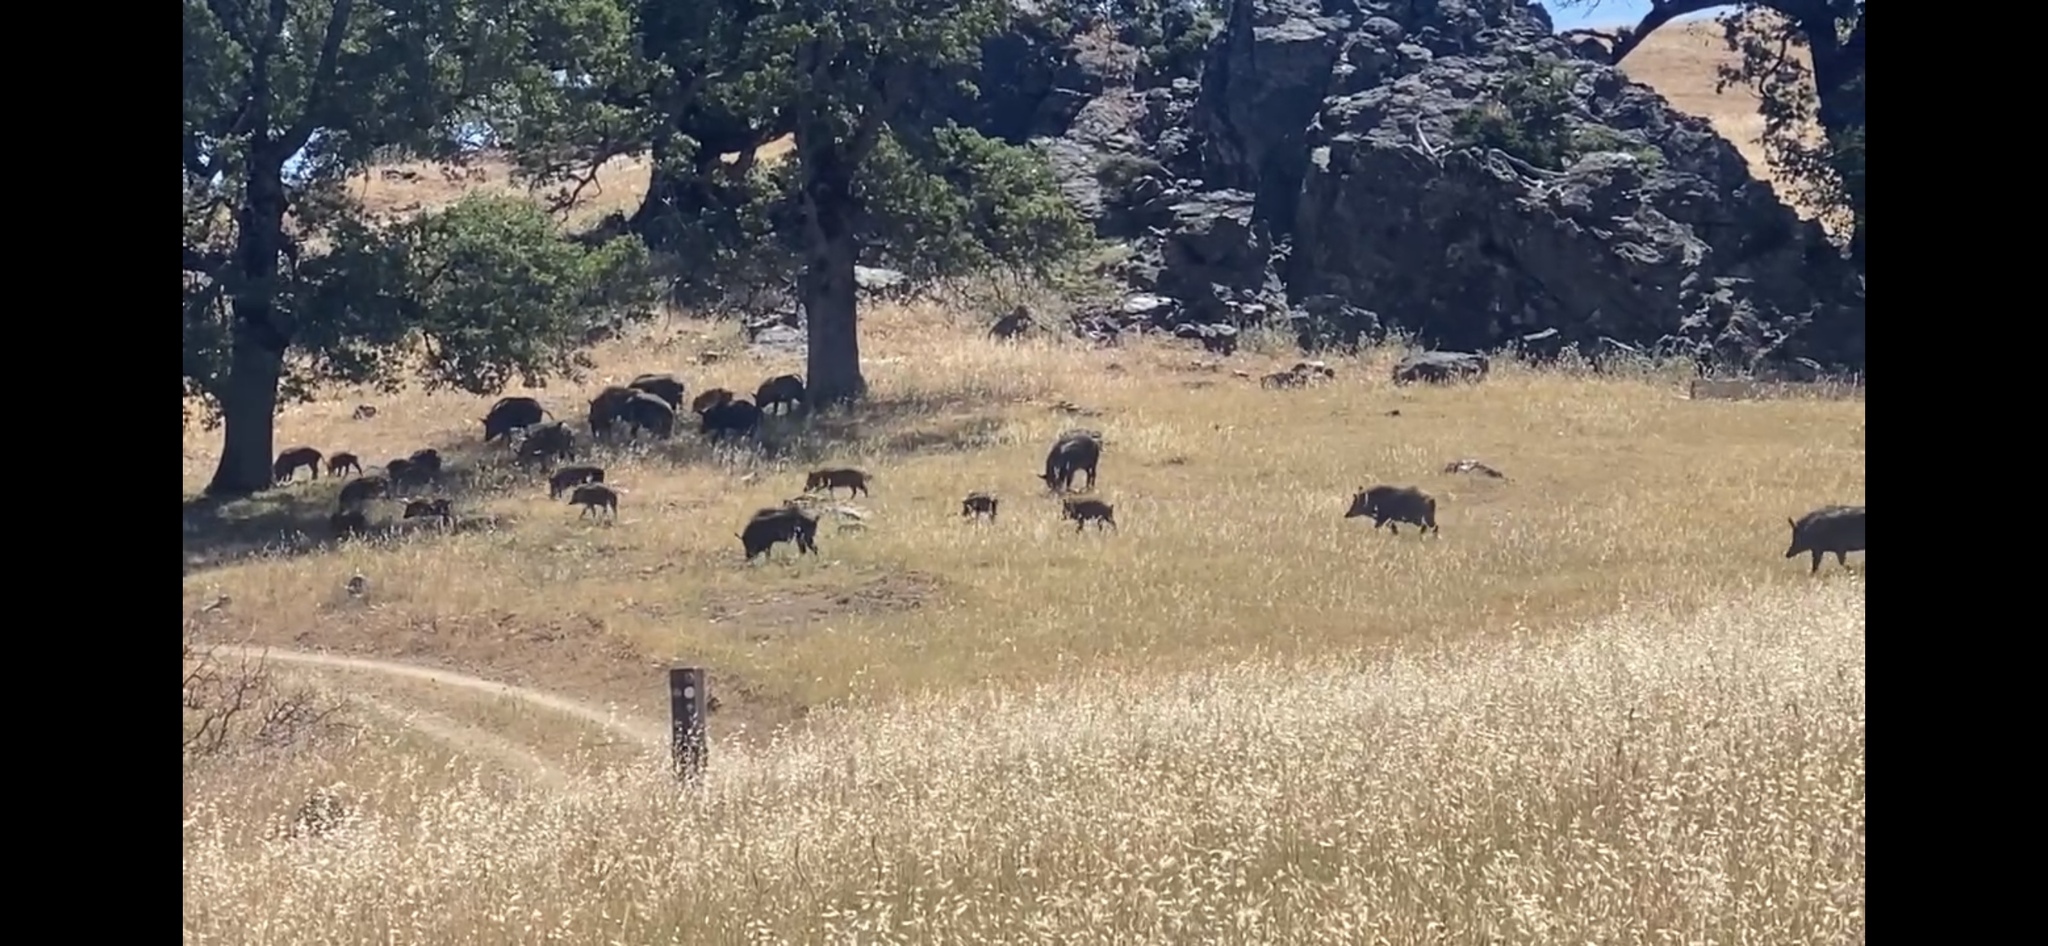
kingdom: Animalia
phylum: Chordata
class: Mammalia
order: Artiodactyla
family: Suidae
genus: Sus
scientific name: Sus scrofa
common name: Wild boar
